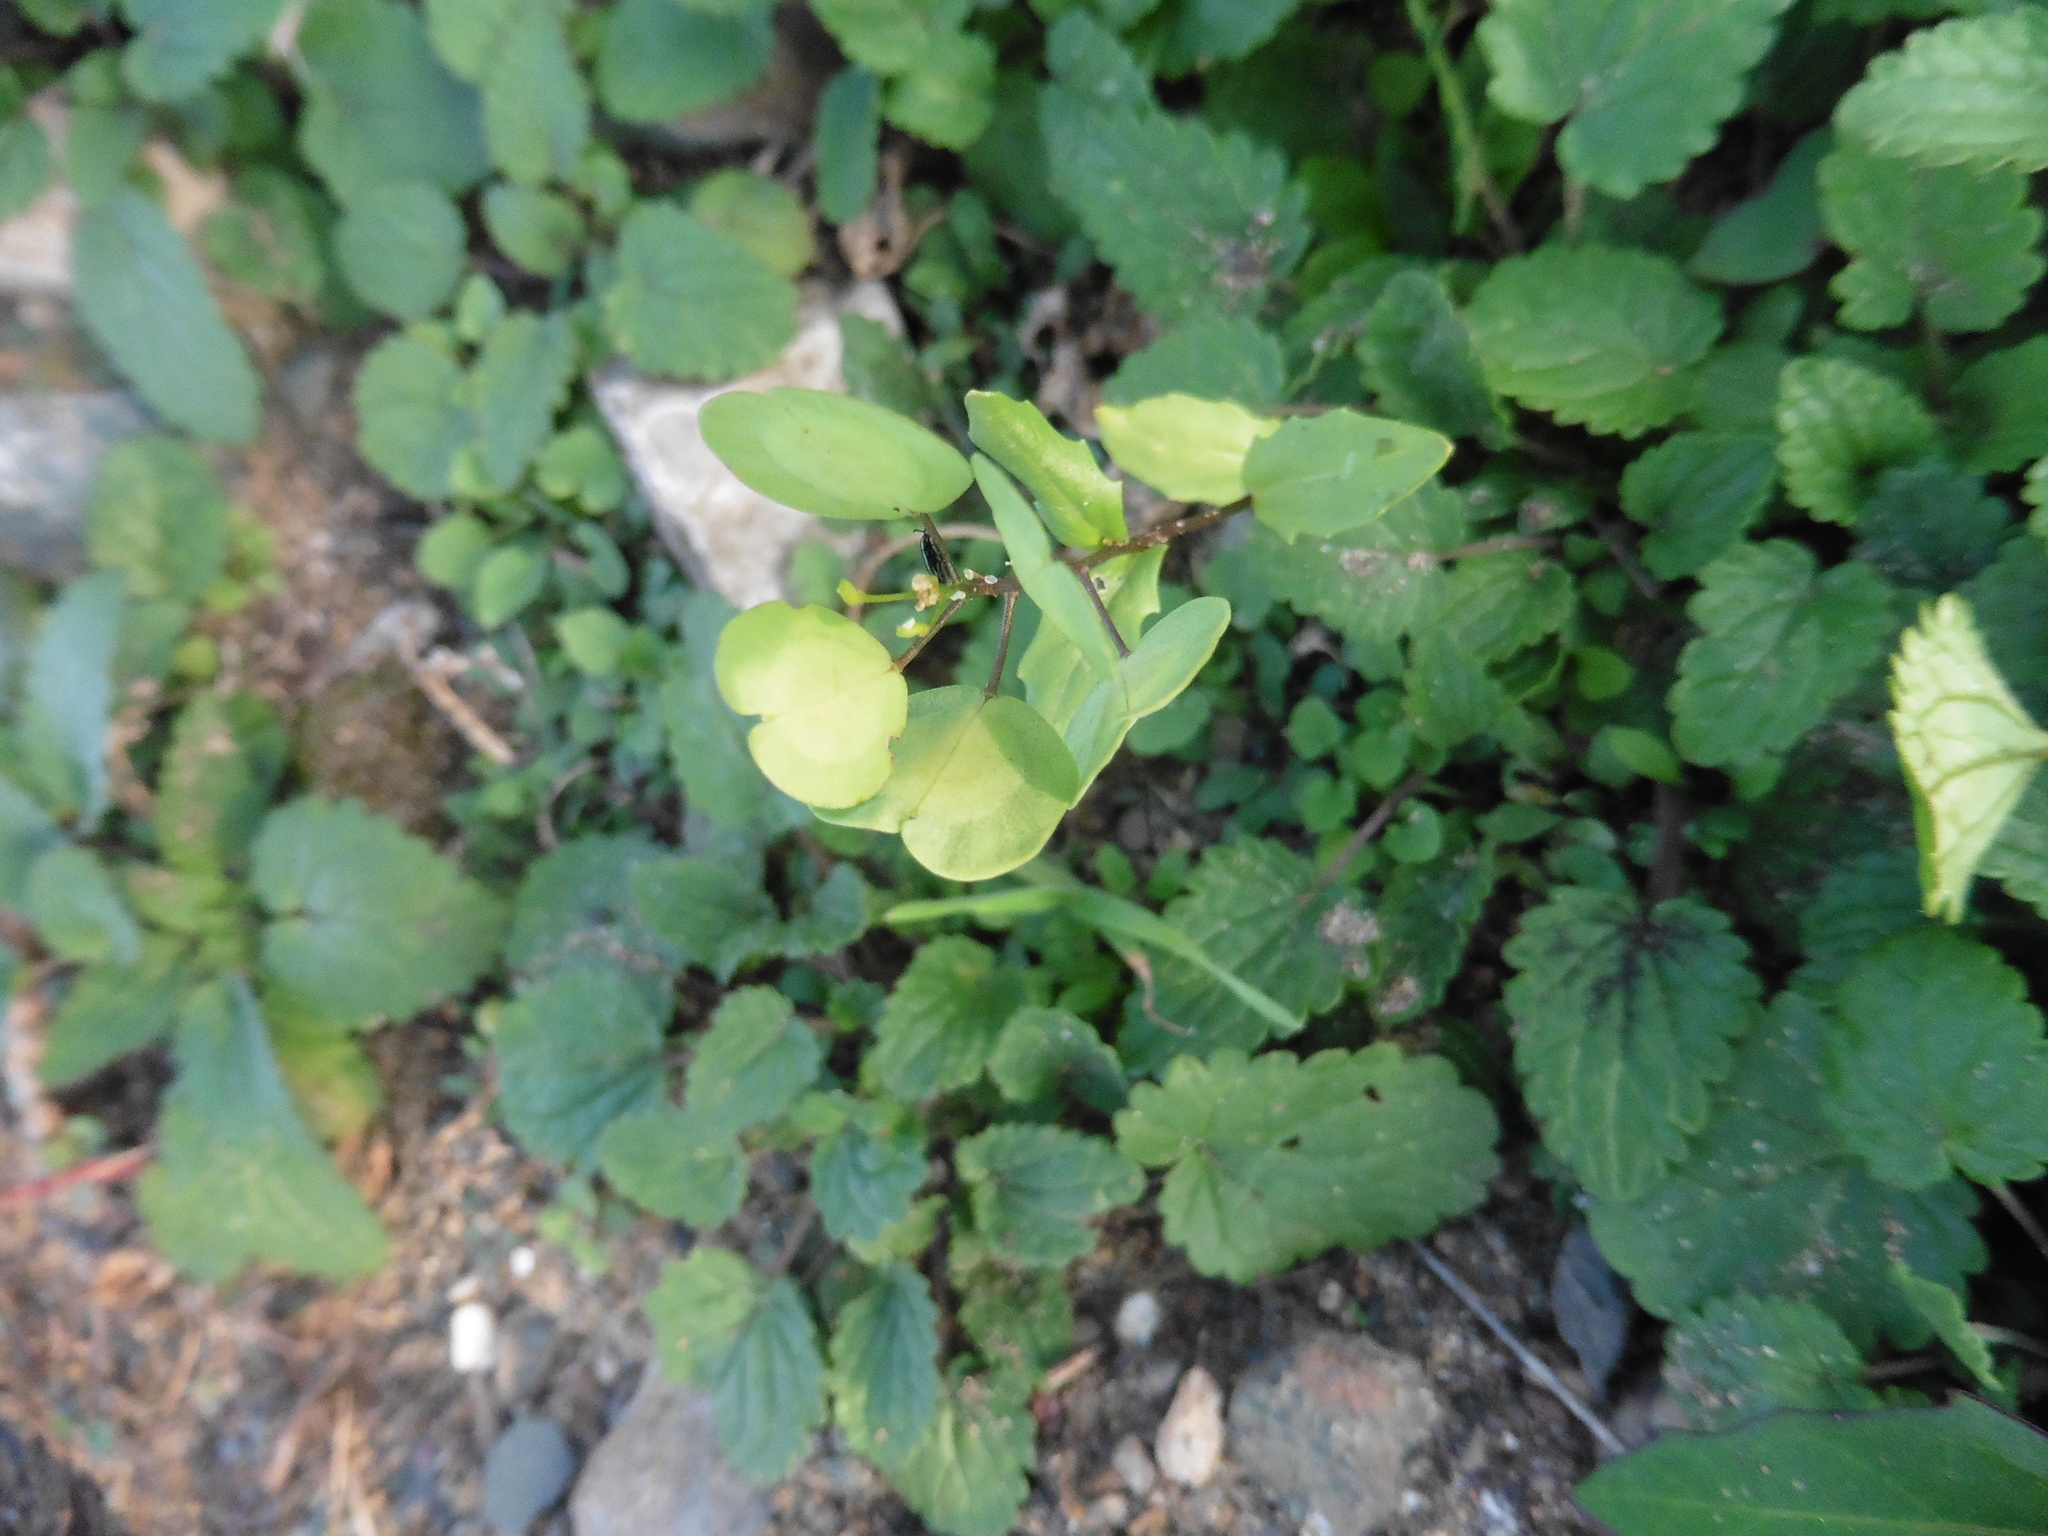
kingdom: Plantae
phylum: Tracheophyta
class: Magnoliopsida
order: Brassicales
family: Brassicaceae
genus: Thlaspi
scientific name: Thlaspi arvense
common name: Field pennycress
